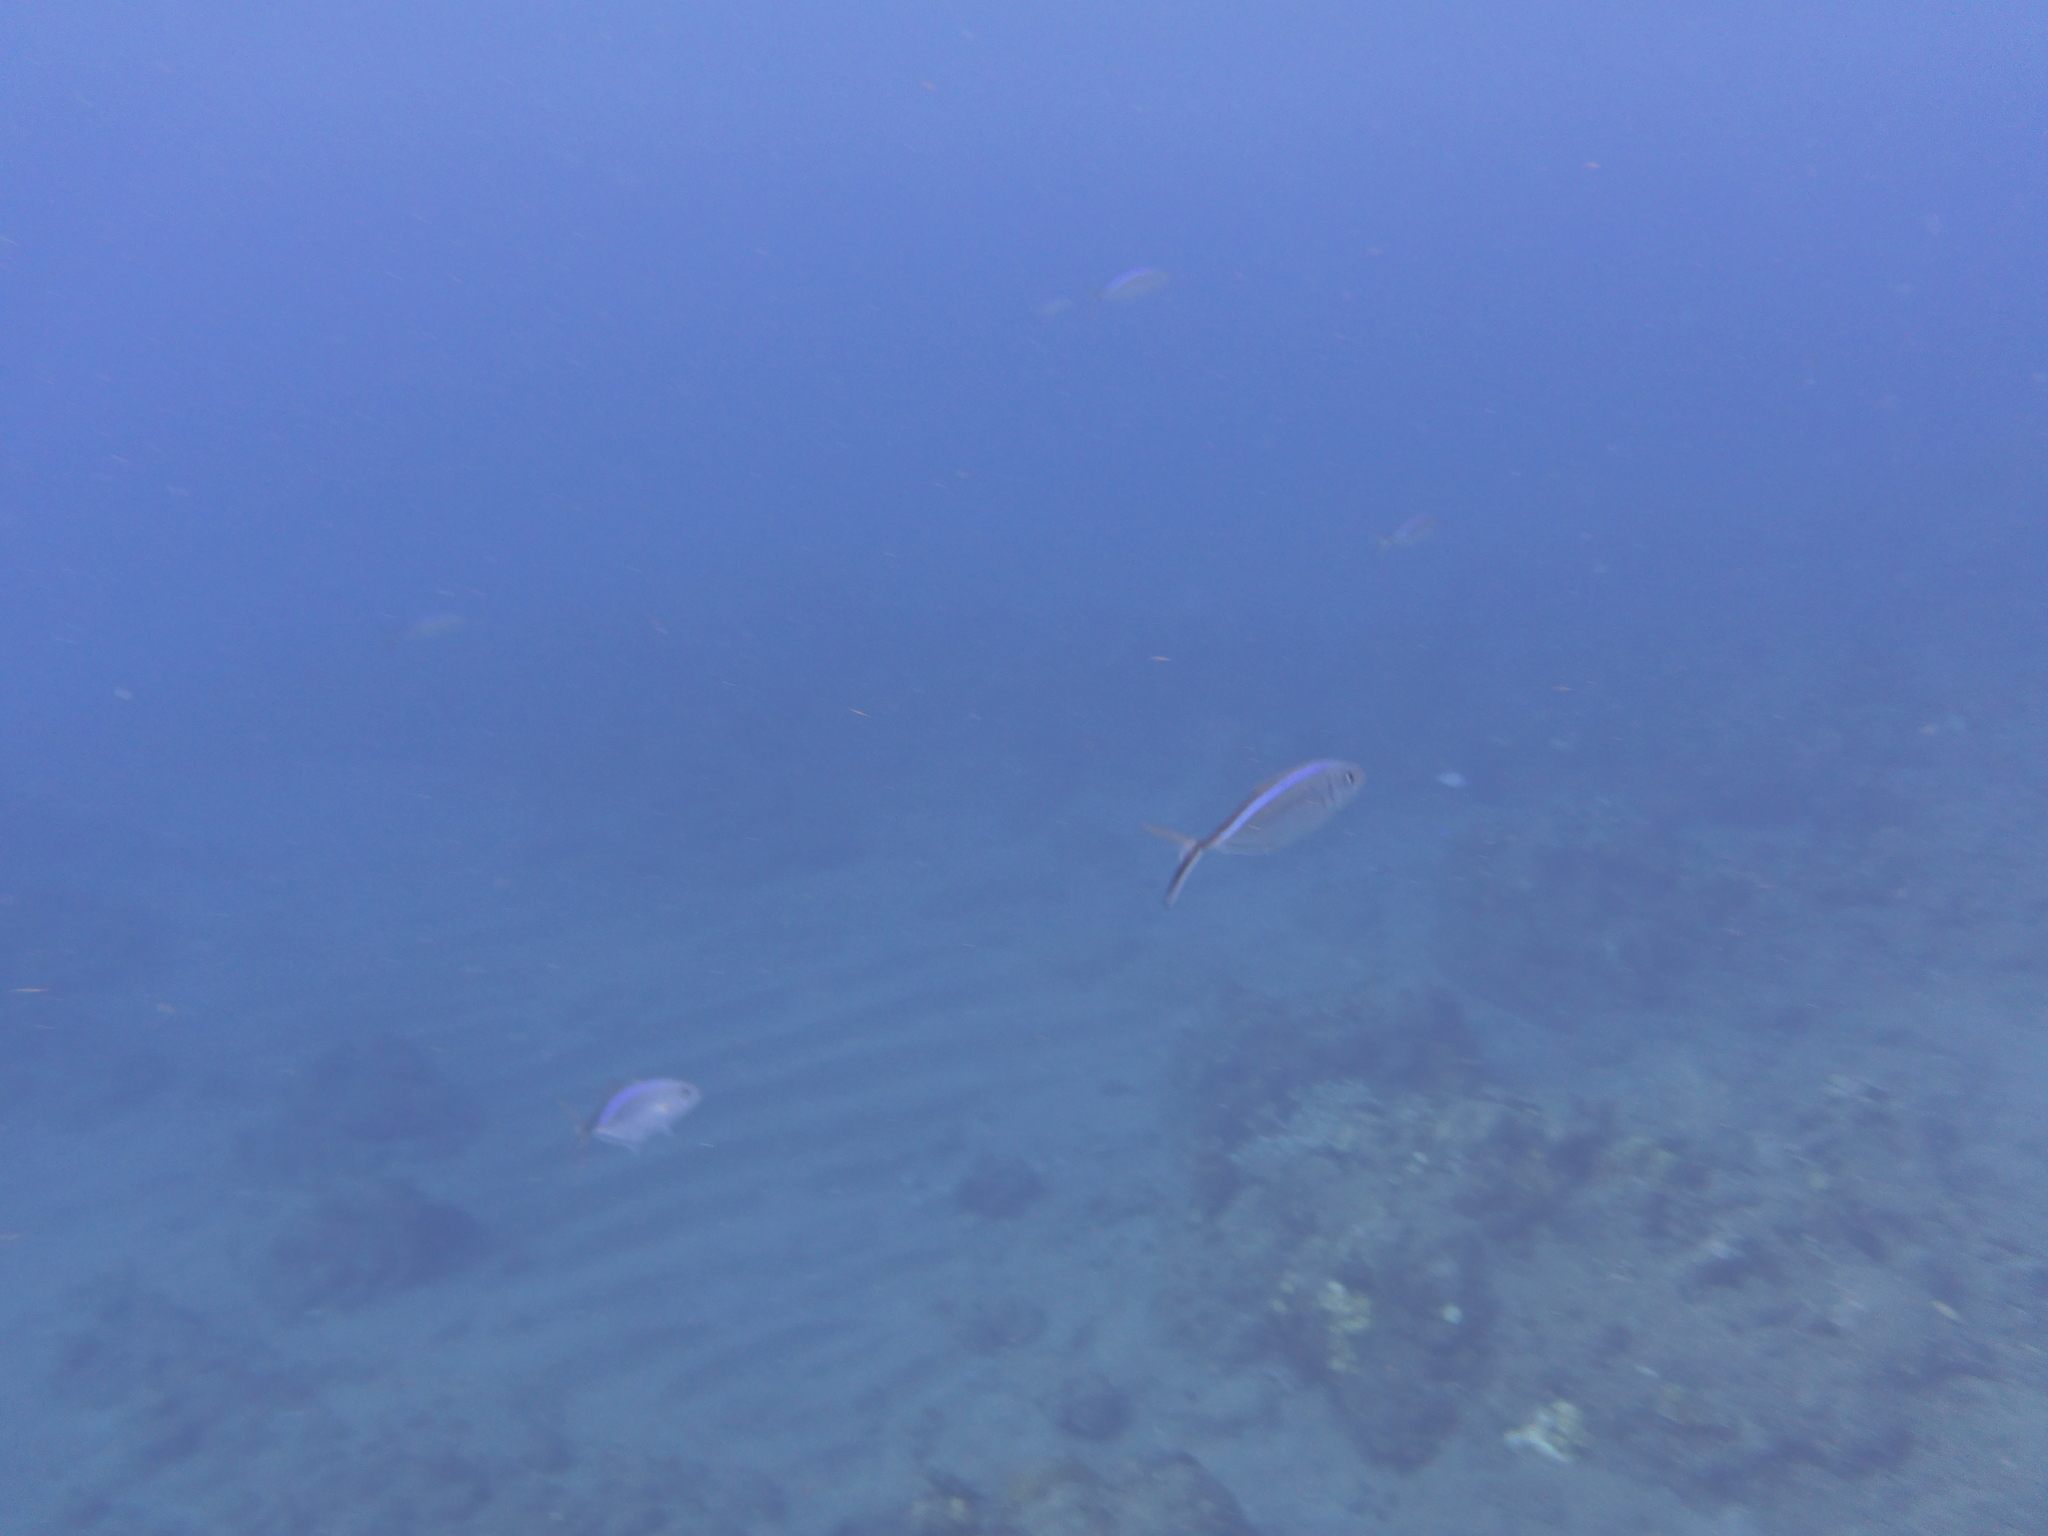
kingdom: Animalia
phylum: Chordata
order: Perciformes
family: Carangidae
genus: Caranx
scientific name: Caranx ruber
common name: Bar jack
